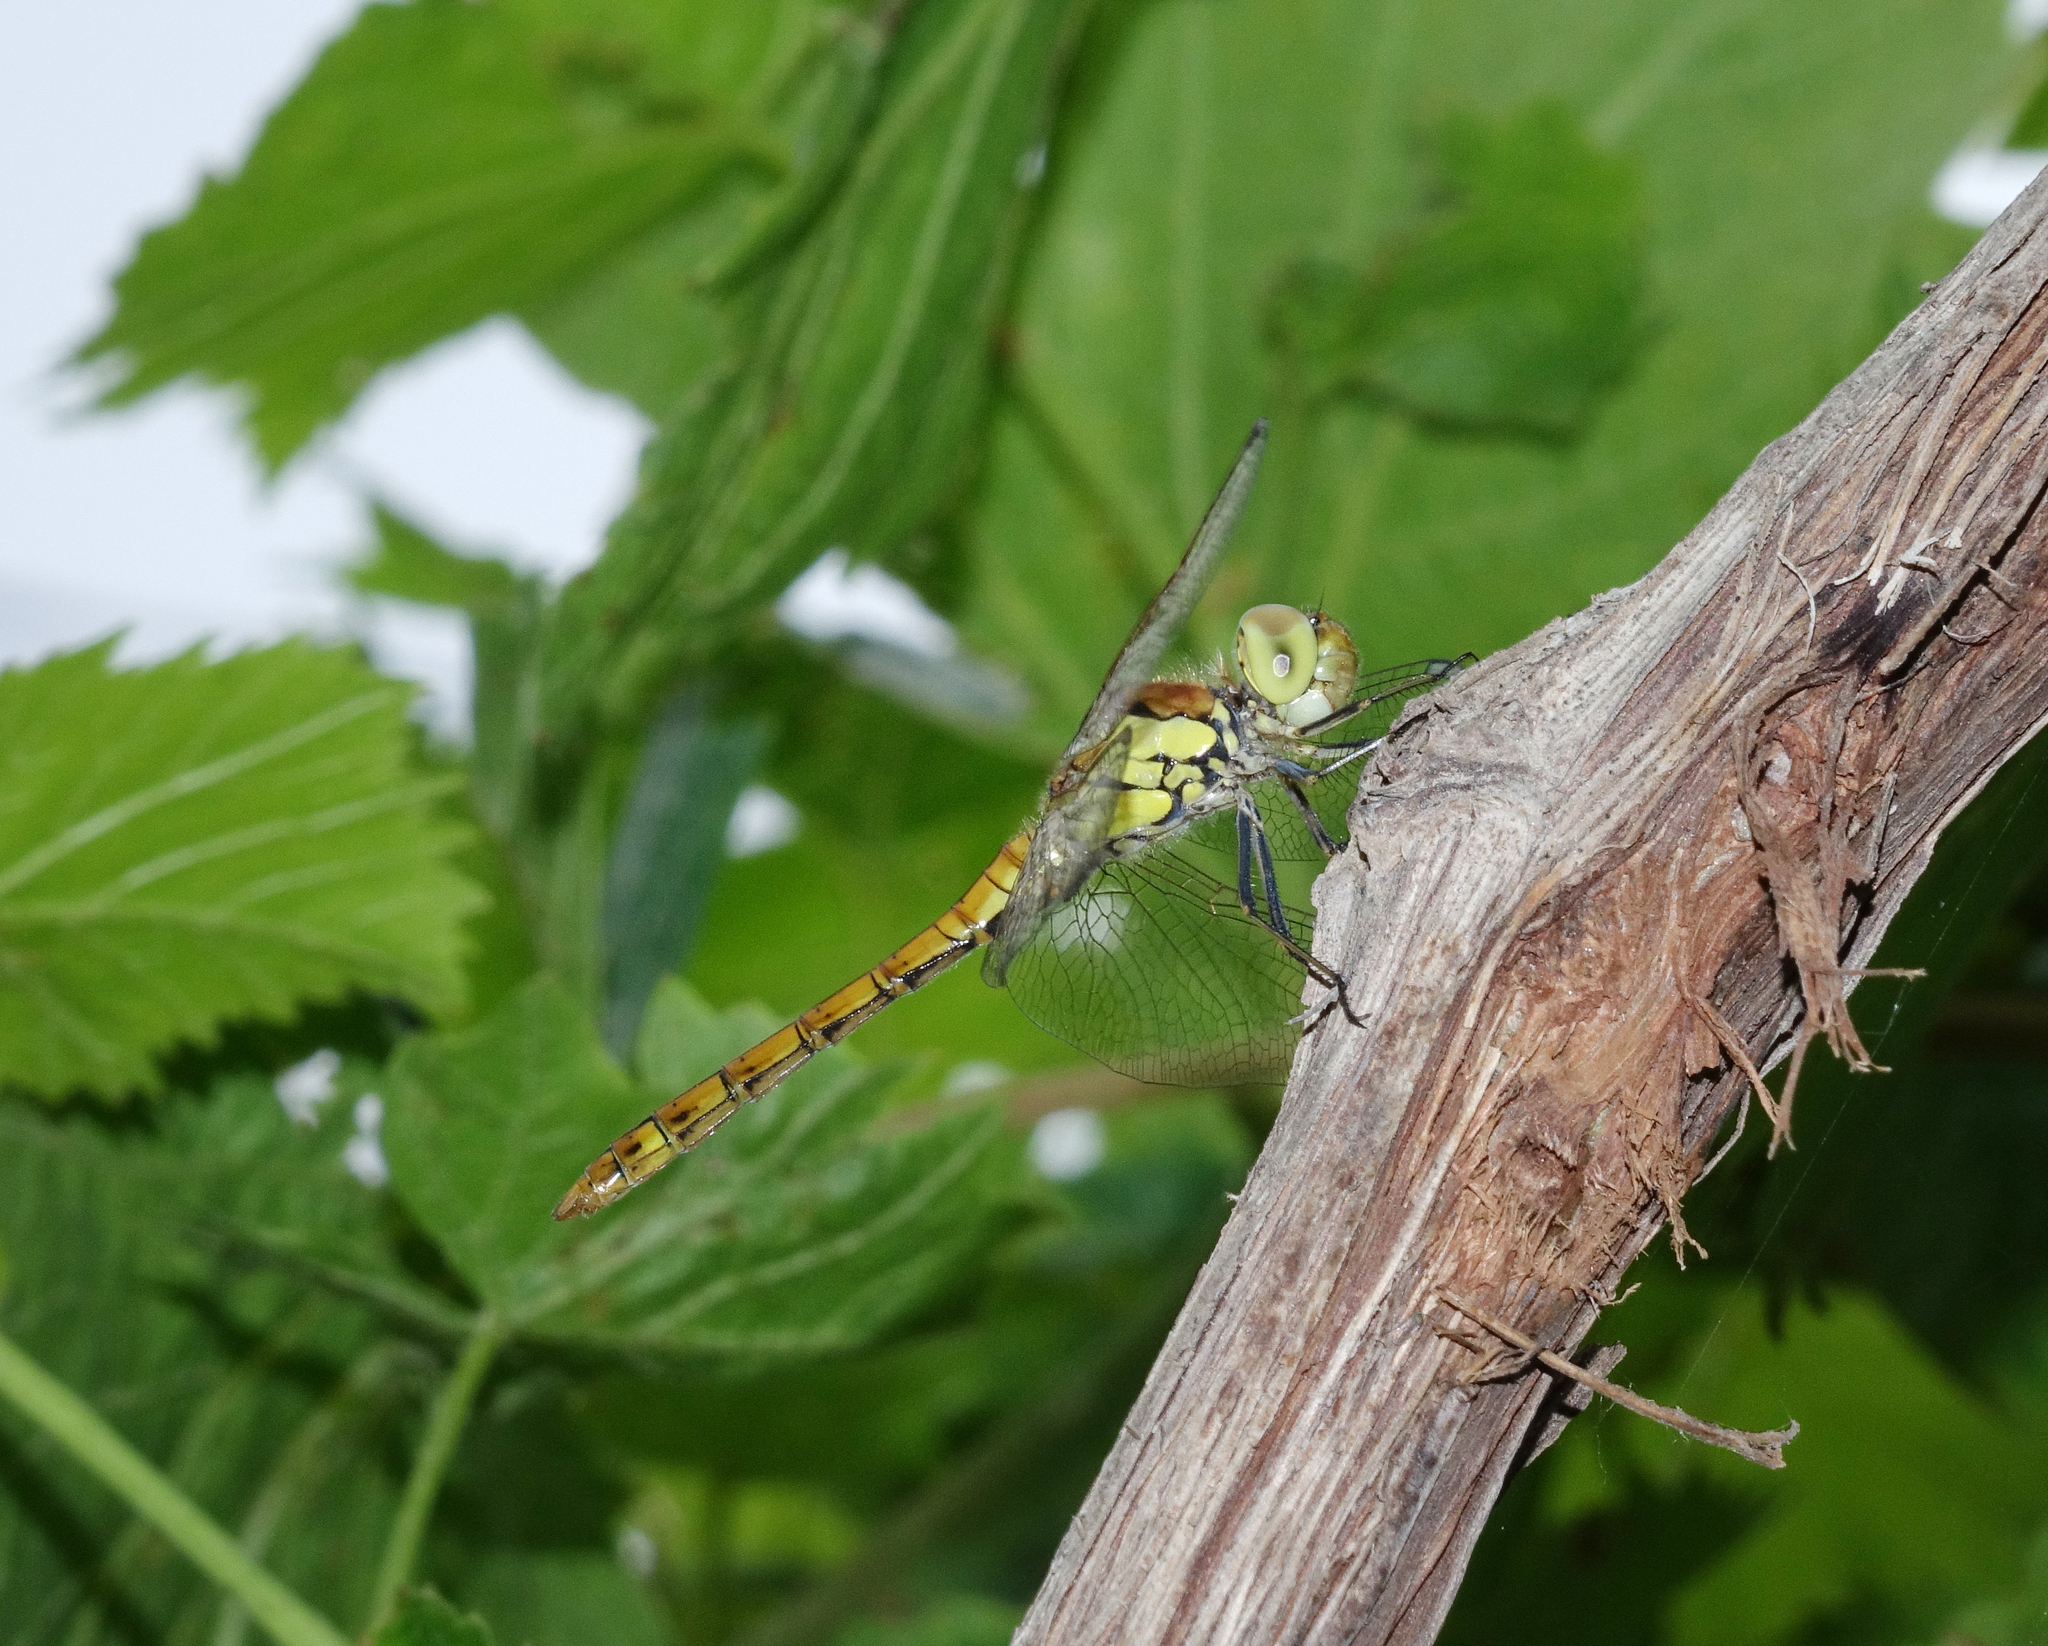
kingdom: Animalia
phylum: Arthropoda
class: Insecta
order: Odonata
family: Libellulidae
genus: Sympetrum
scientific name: Sympetrum striolatum
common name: Common darter
